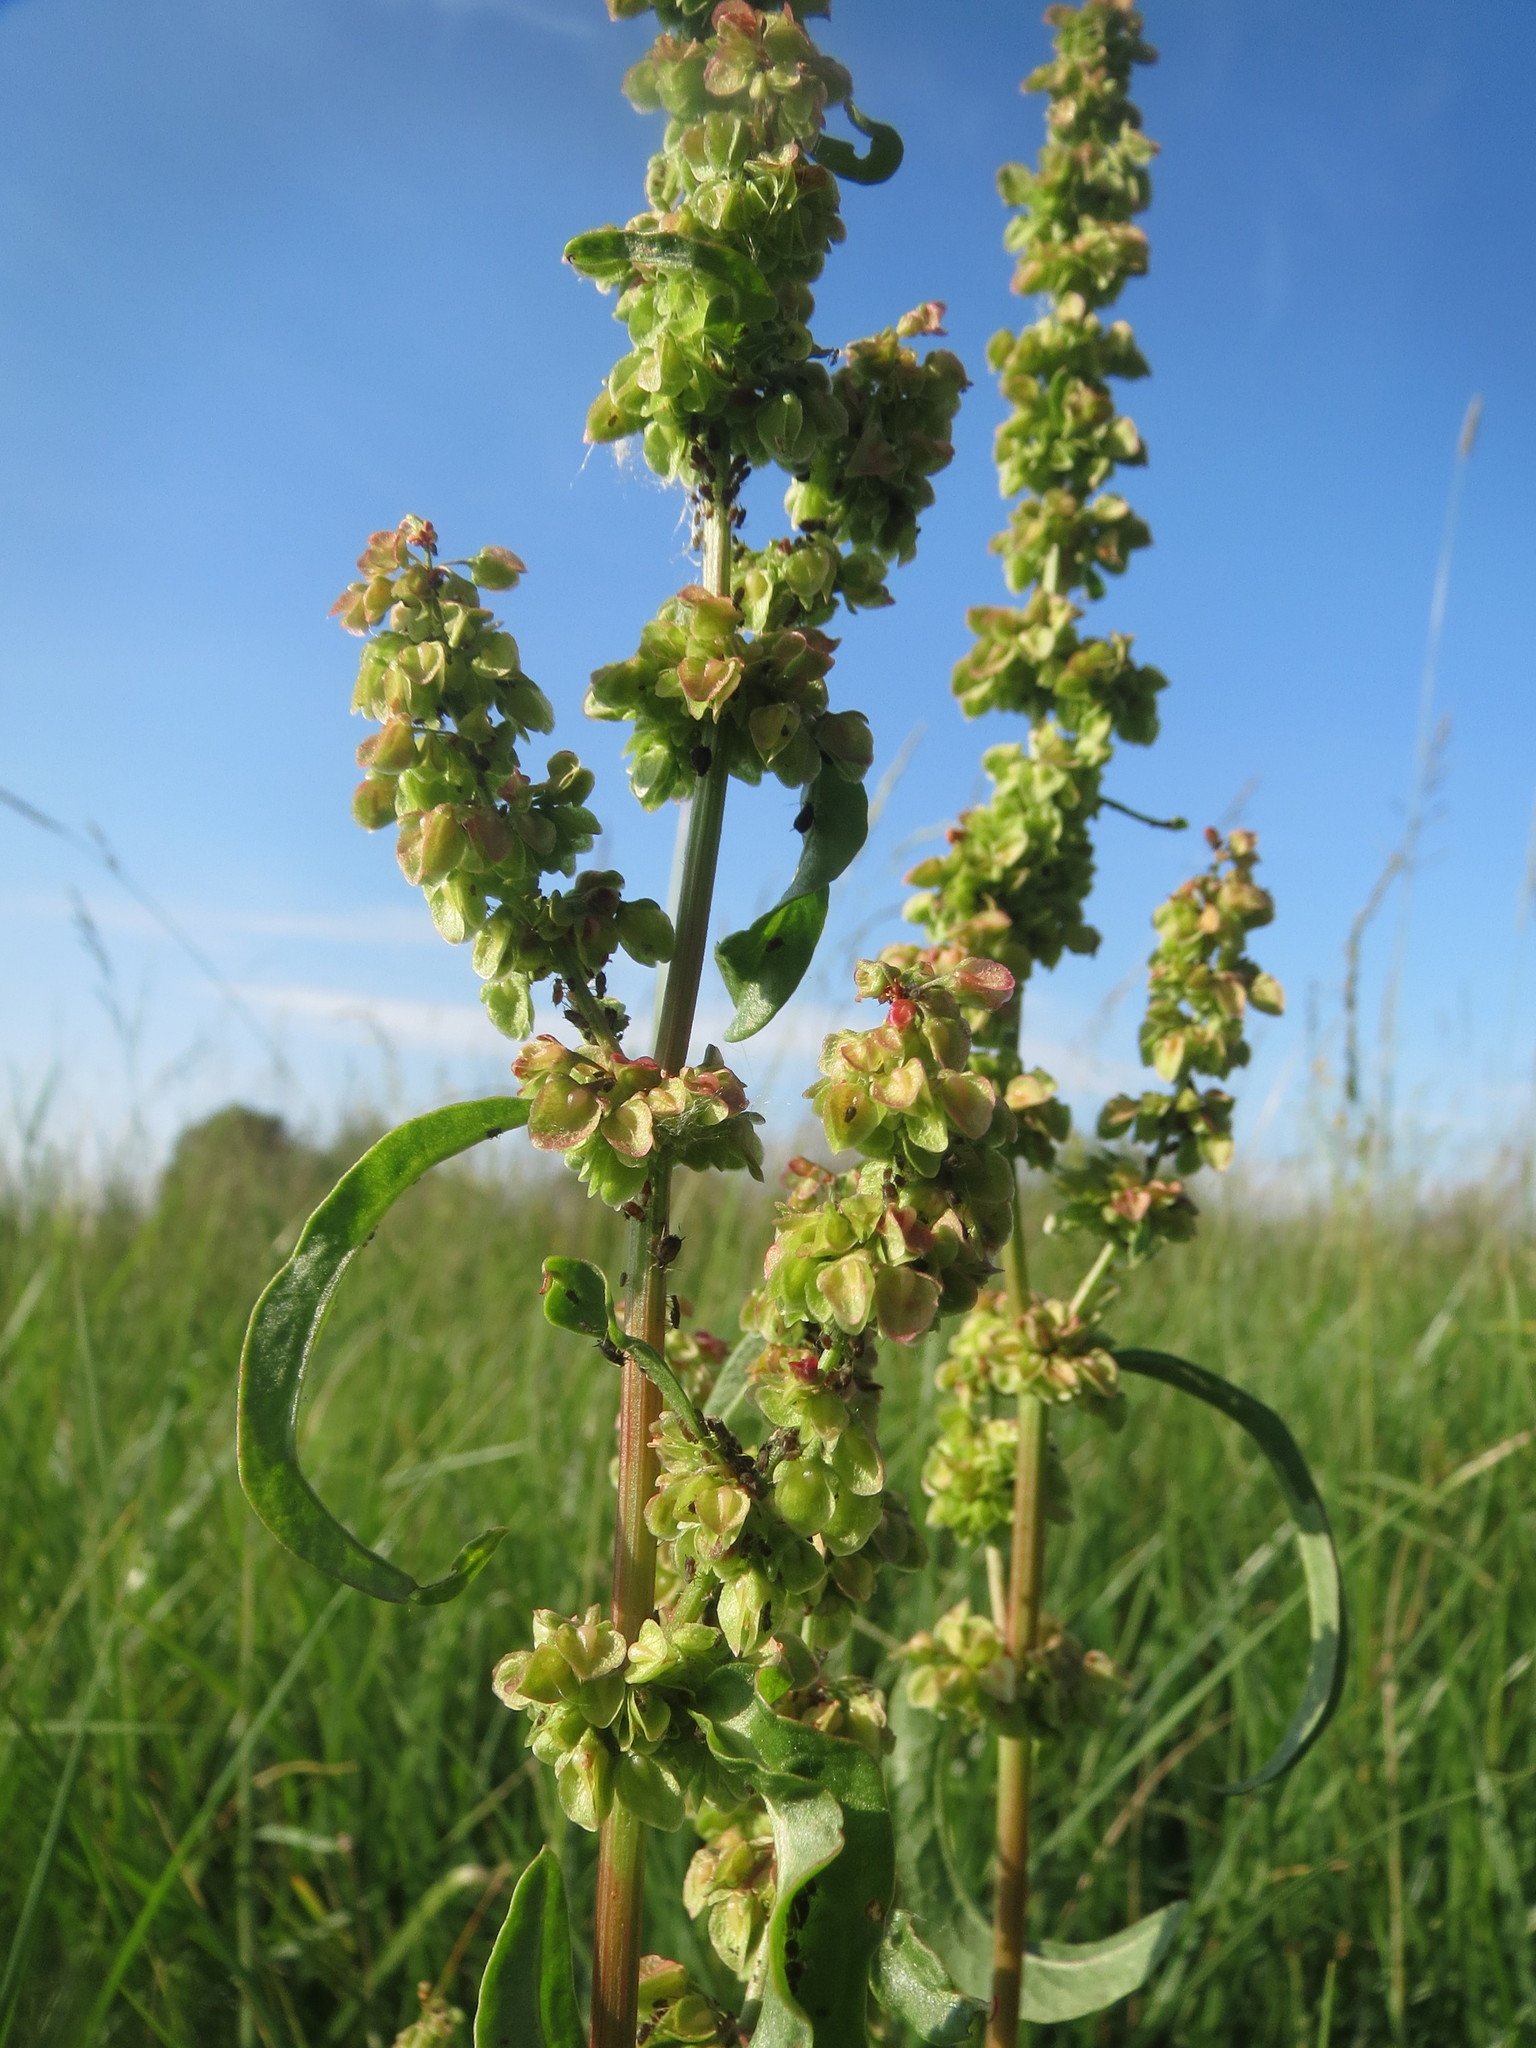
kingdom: Plantae
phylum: Tracheophyta
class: Magnoliopsida
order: Caryophyllales
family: Polygonaceae
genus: Rumex
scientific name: Rumex crispus
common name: Curled dock
